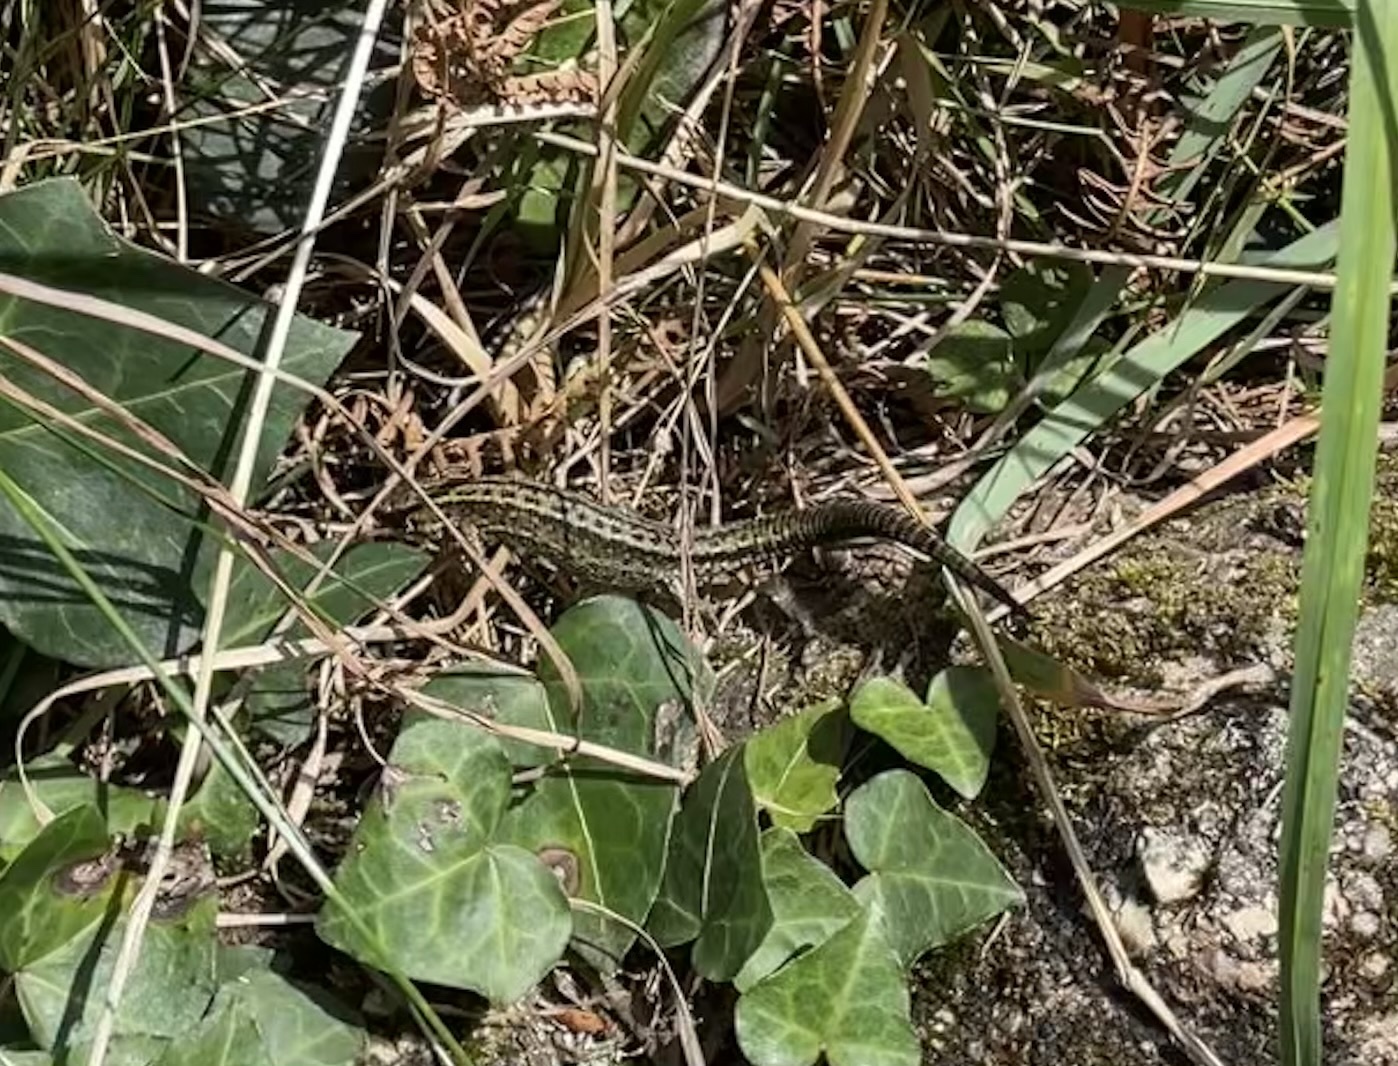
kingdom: Animalia
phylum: Chordata
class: Squamata
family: Lacertidae
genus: Zootoca
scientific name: Zootoca vivipara
